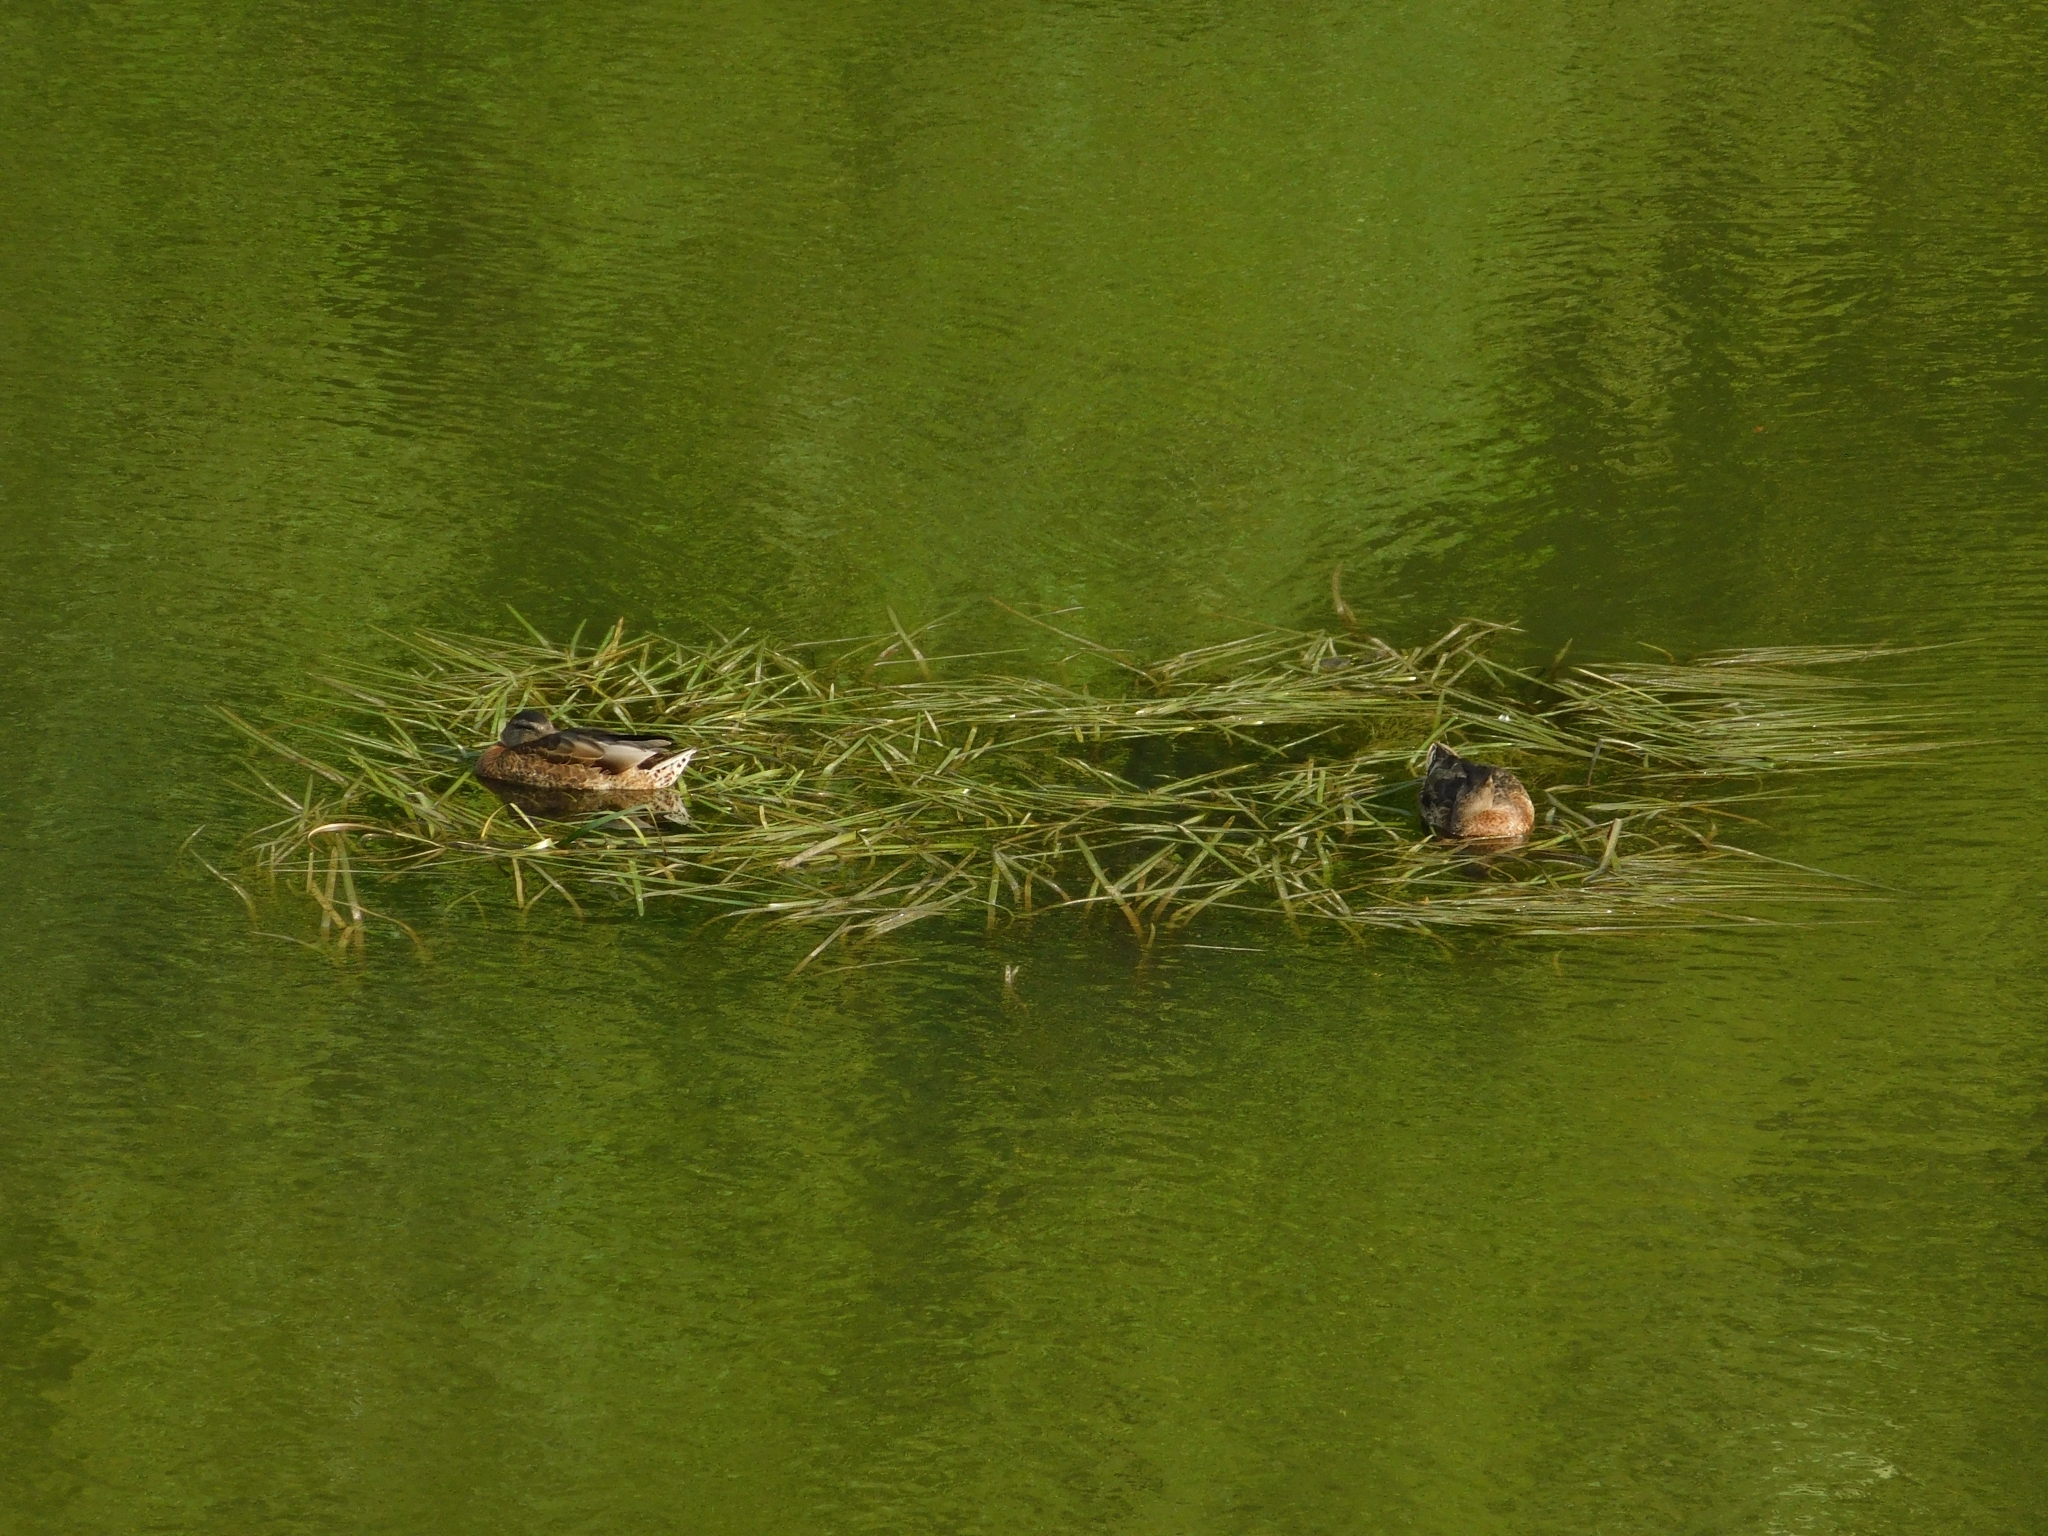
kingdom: Animalia
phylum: Chordata
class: Aves
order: Anseriformes
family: Anatidae
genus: Anas
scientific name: Anas platyrhynchos
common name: Mallard
